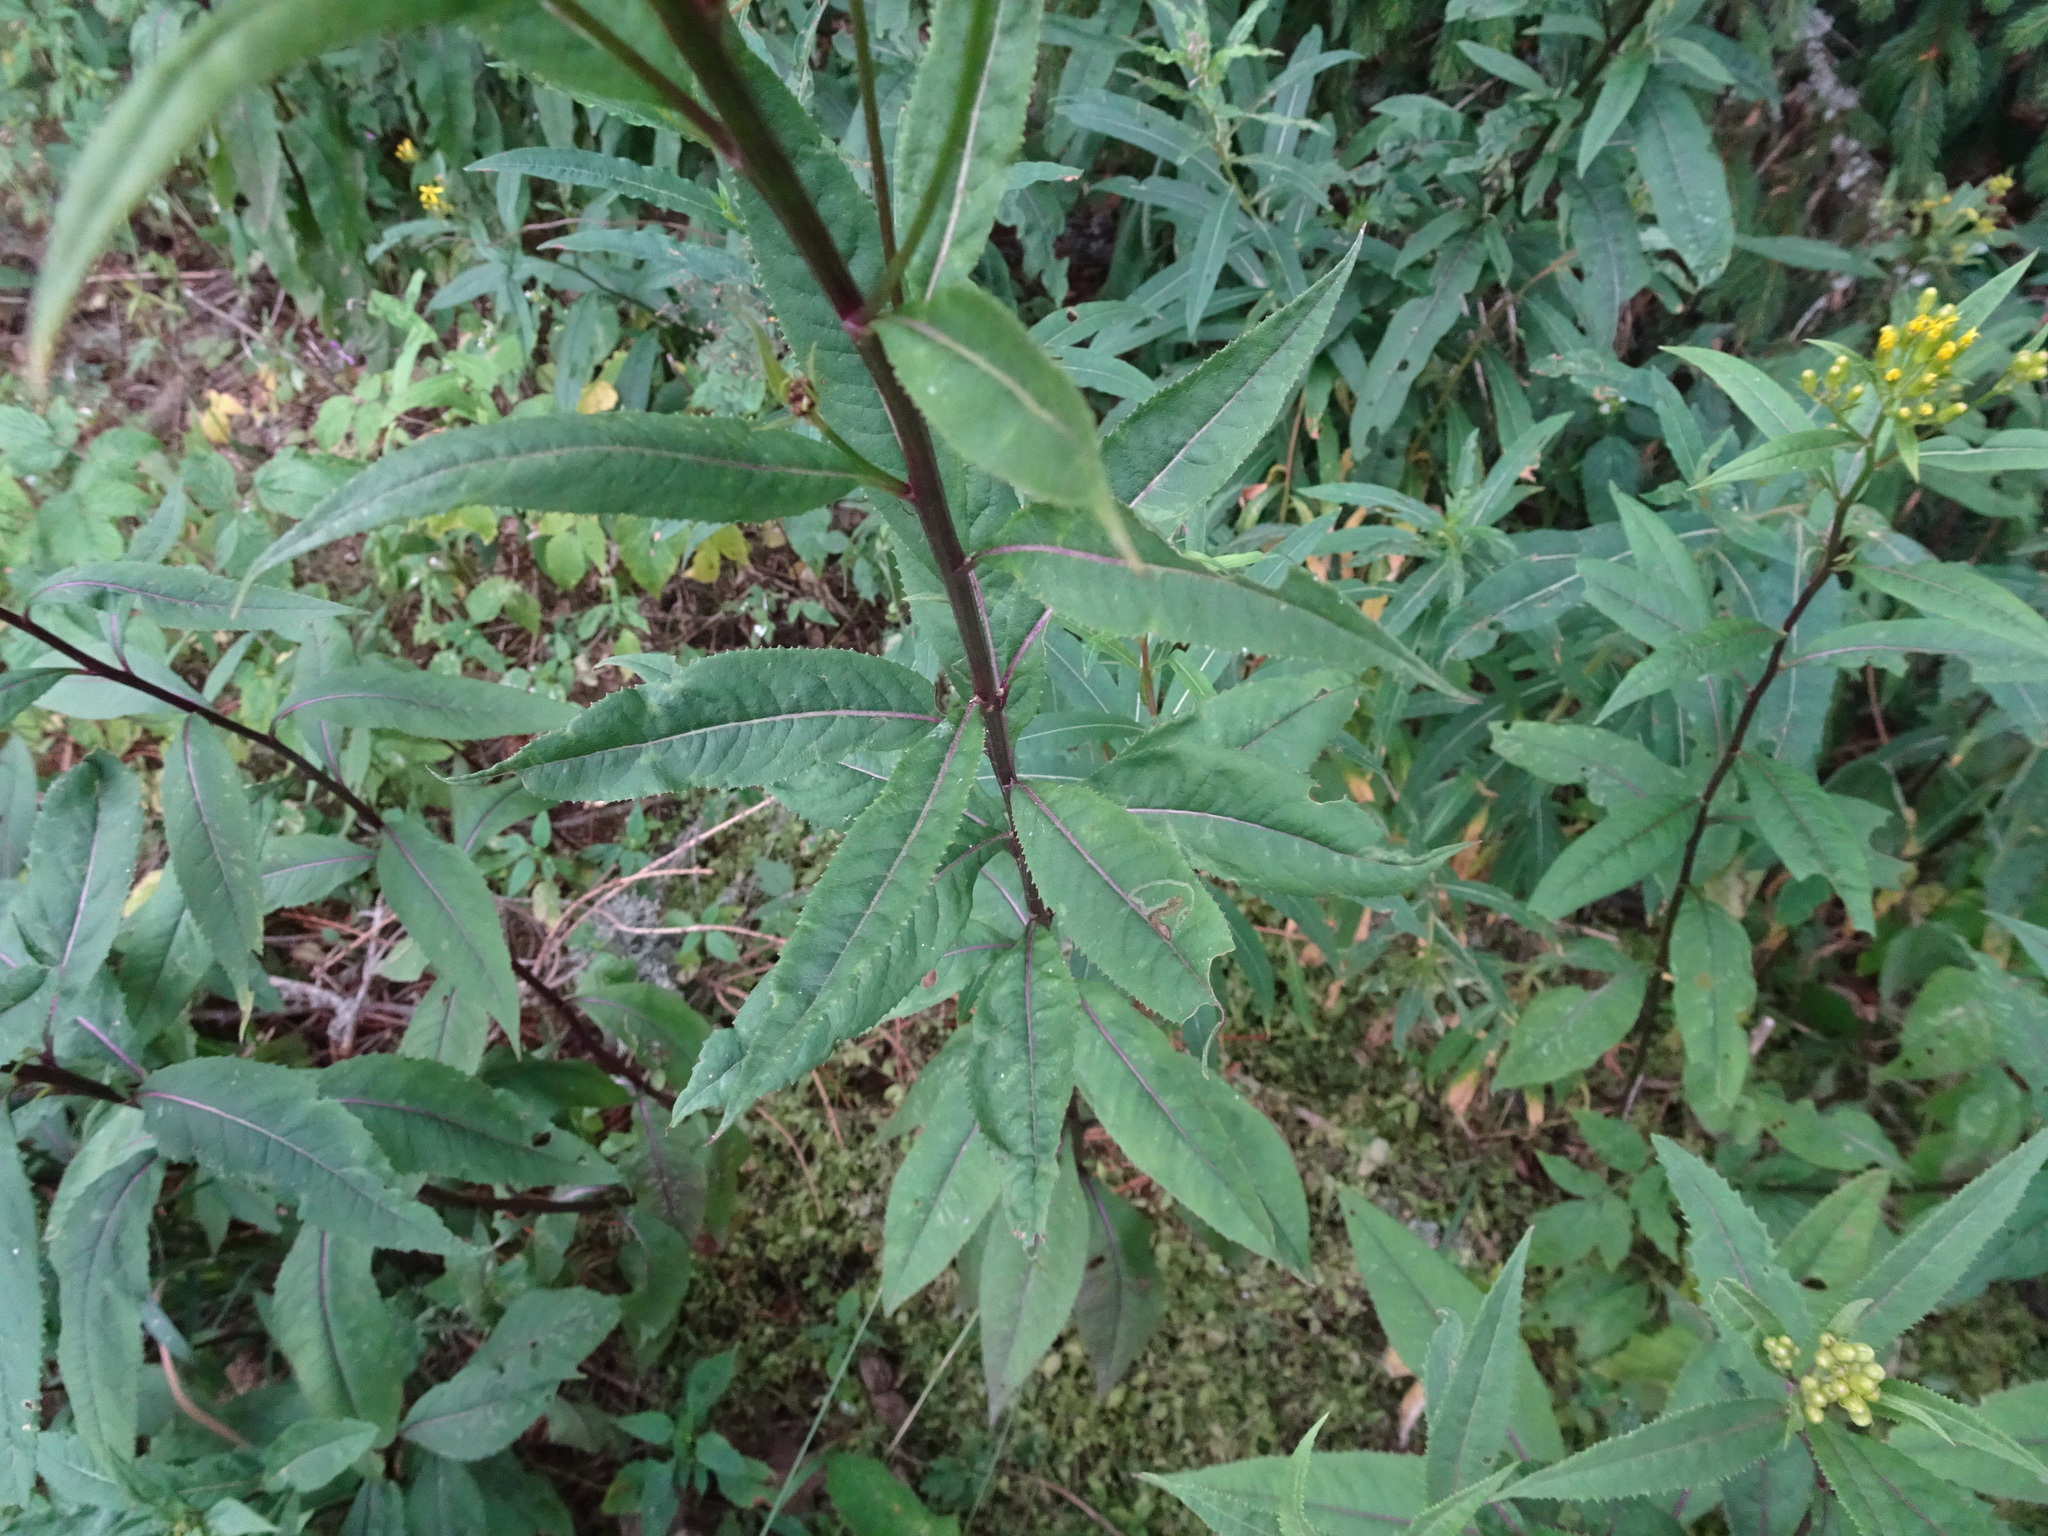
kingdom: Plantae
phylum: Tracheophyta
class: Magnoliopsida
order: Asterales
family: Asteraceae
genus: Senecio
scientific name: Senecio ovatus
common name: Wood ragwort
